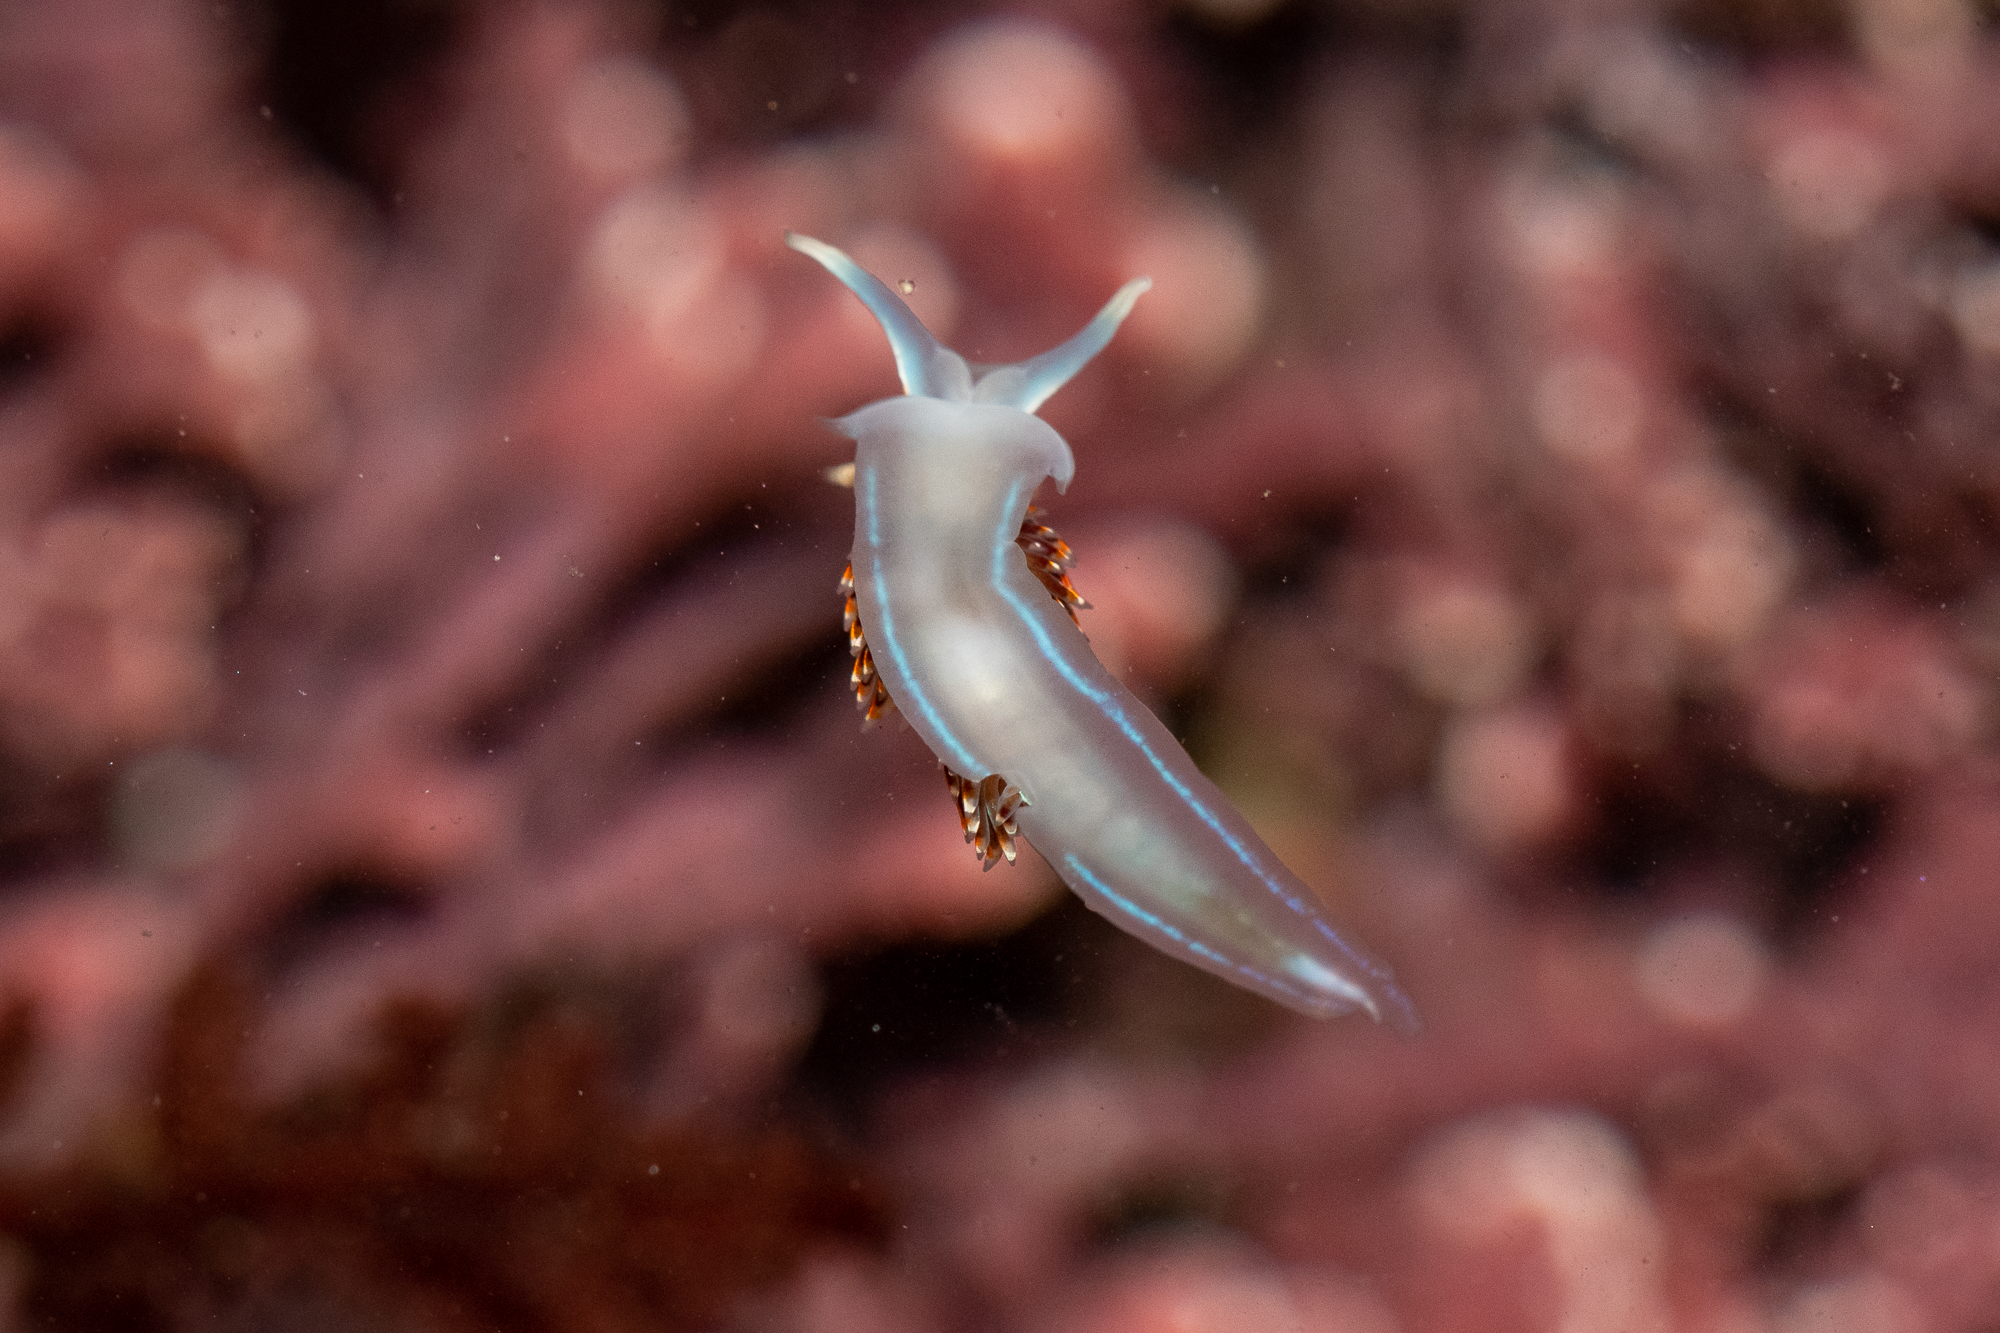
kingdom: Animalia
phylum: Mollusca
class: Gastropoda
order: Nudibranchia
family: Myrrhinidae
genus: Hermissenda
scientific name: Hermissenda opalescens
